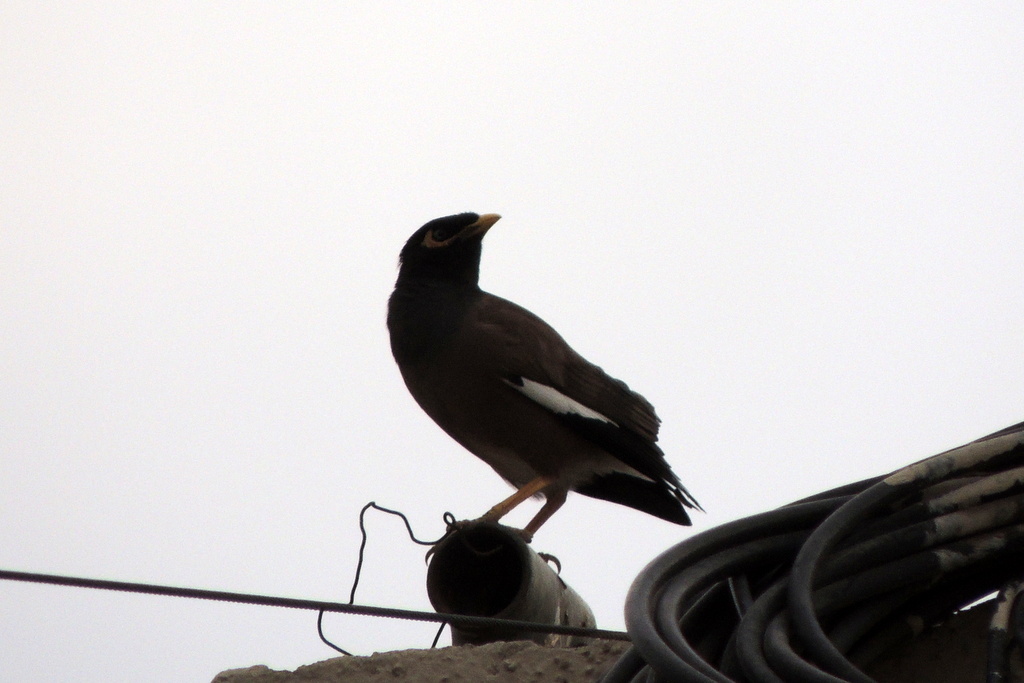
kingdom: Animalia
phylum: Chordata
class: Aves
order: Passeriformes
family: Sturnidae
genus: Acridotheres
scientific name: Acridotheres tristis
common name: Common myna
